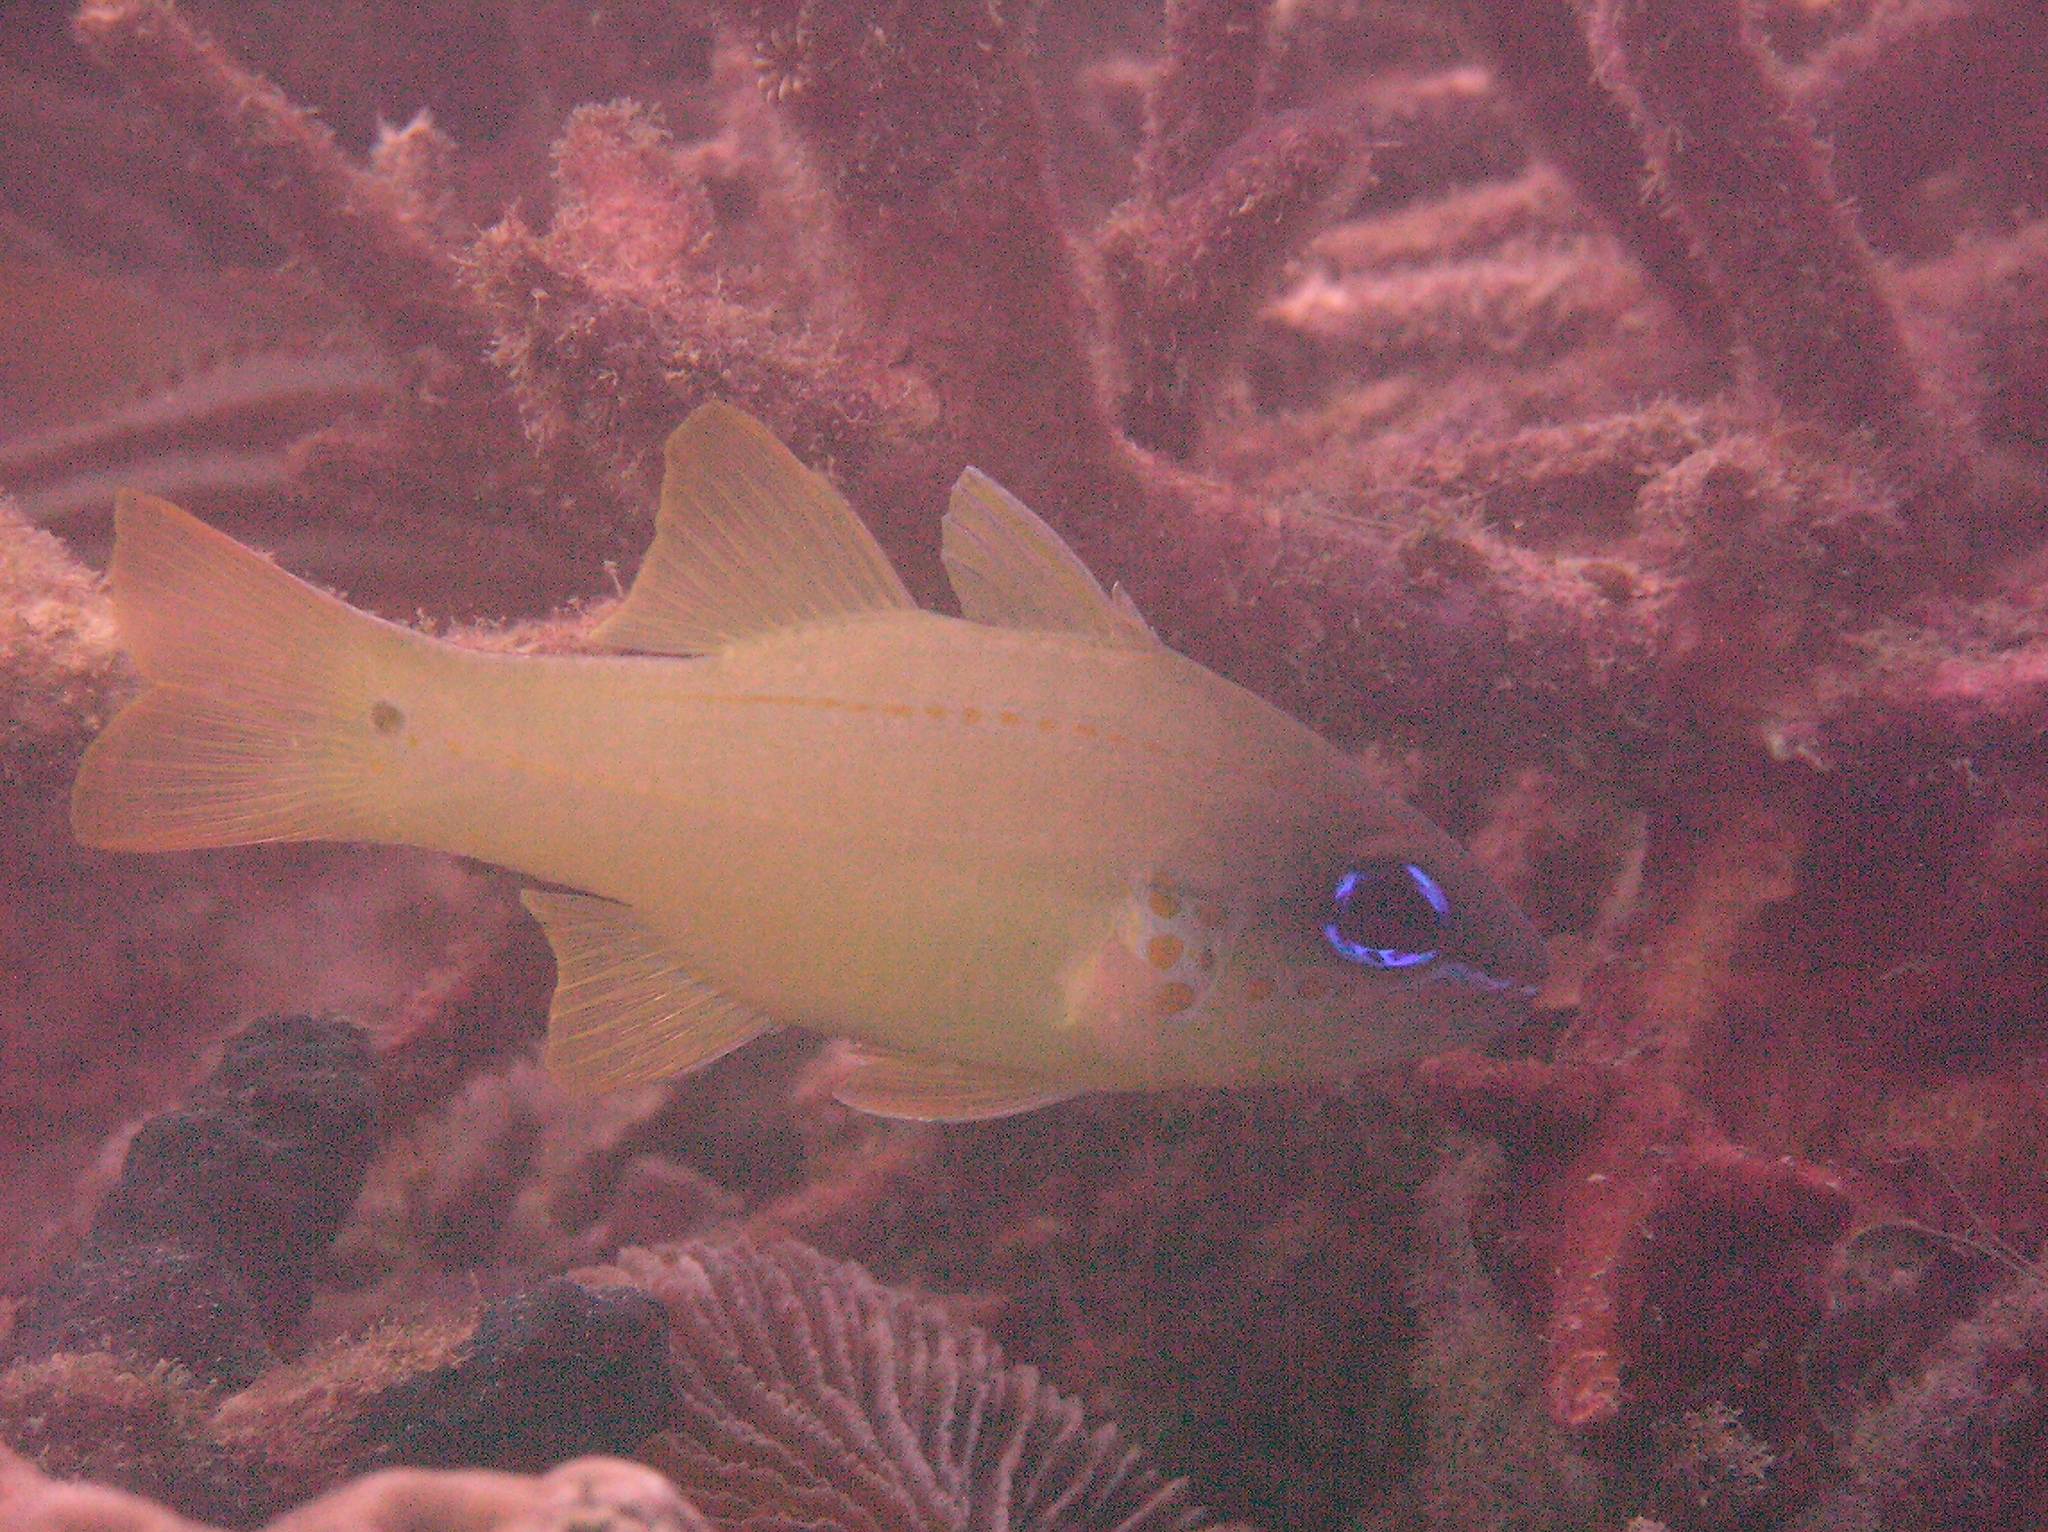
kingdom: Animalia
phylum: Chordata
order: Perciformes
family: Apogonidae
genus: Ostorhinchus
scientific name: Ostorhinchus chrysopomus
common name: Cheek-spot cardinalfish
